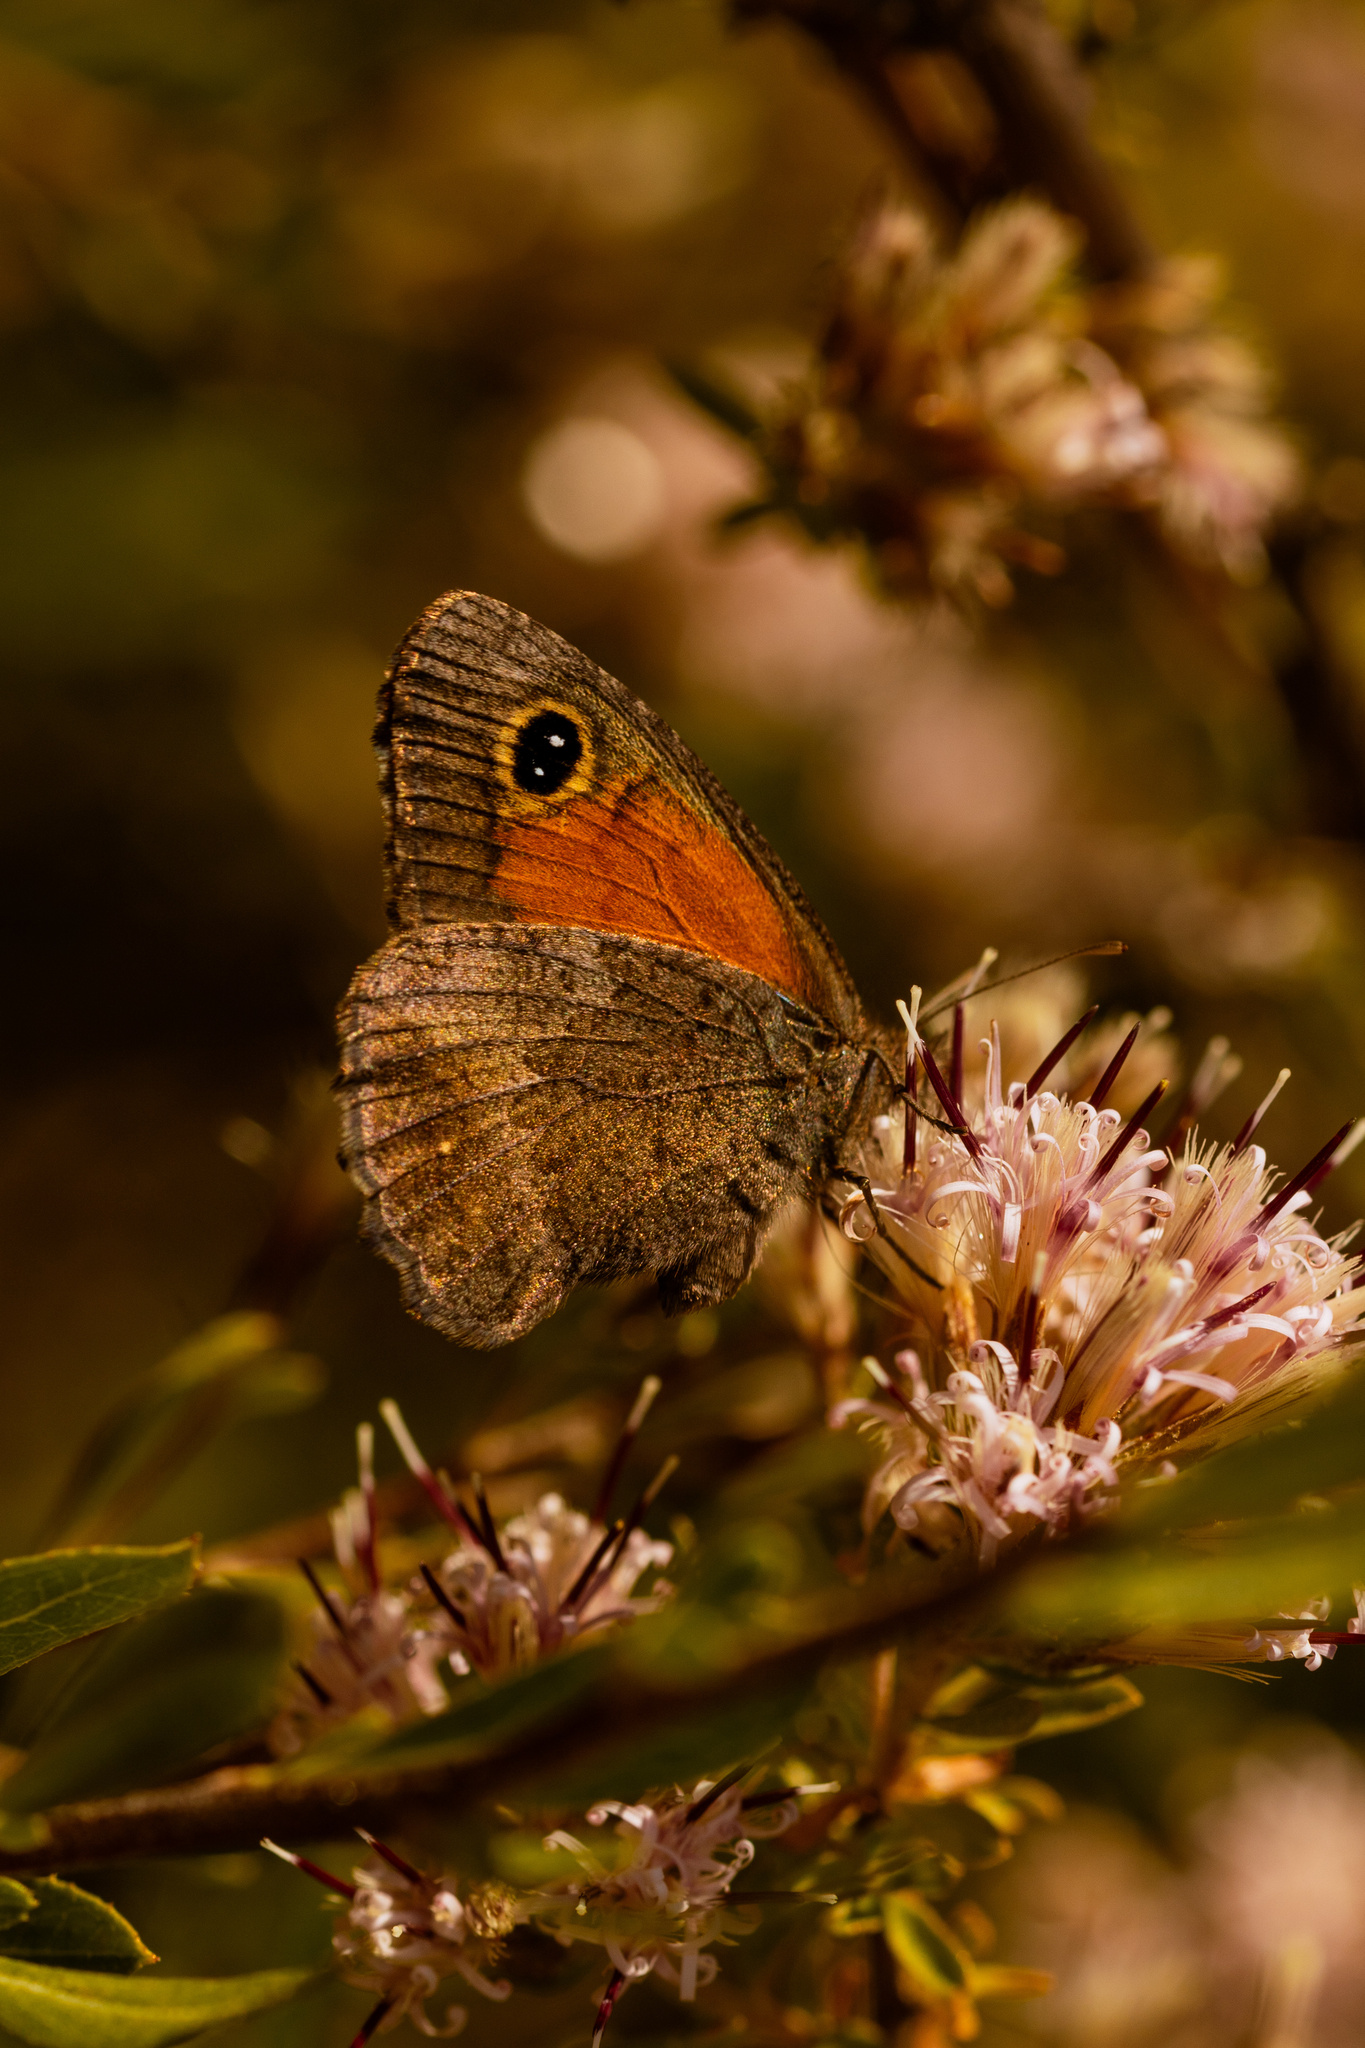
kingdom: Animalia
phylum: Arthropoda
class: Insecta
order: Lepidoptera
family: Nymphalidae
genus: Auca
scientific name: Auca coctei
